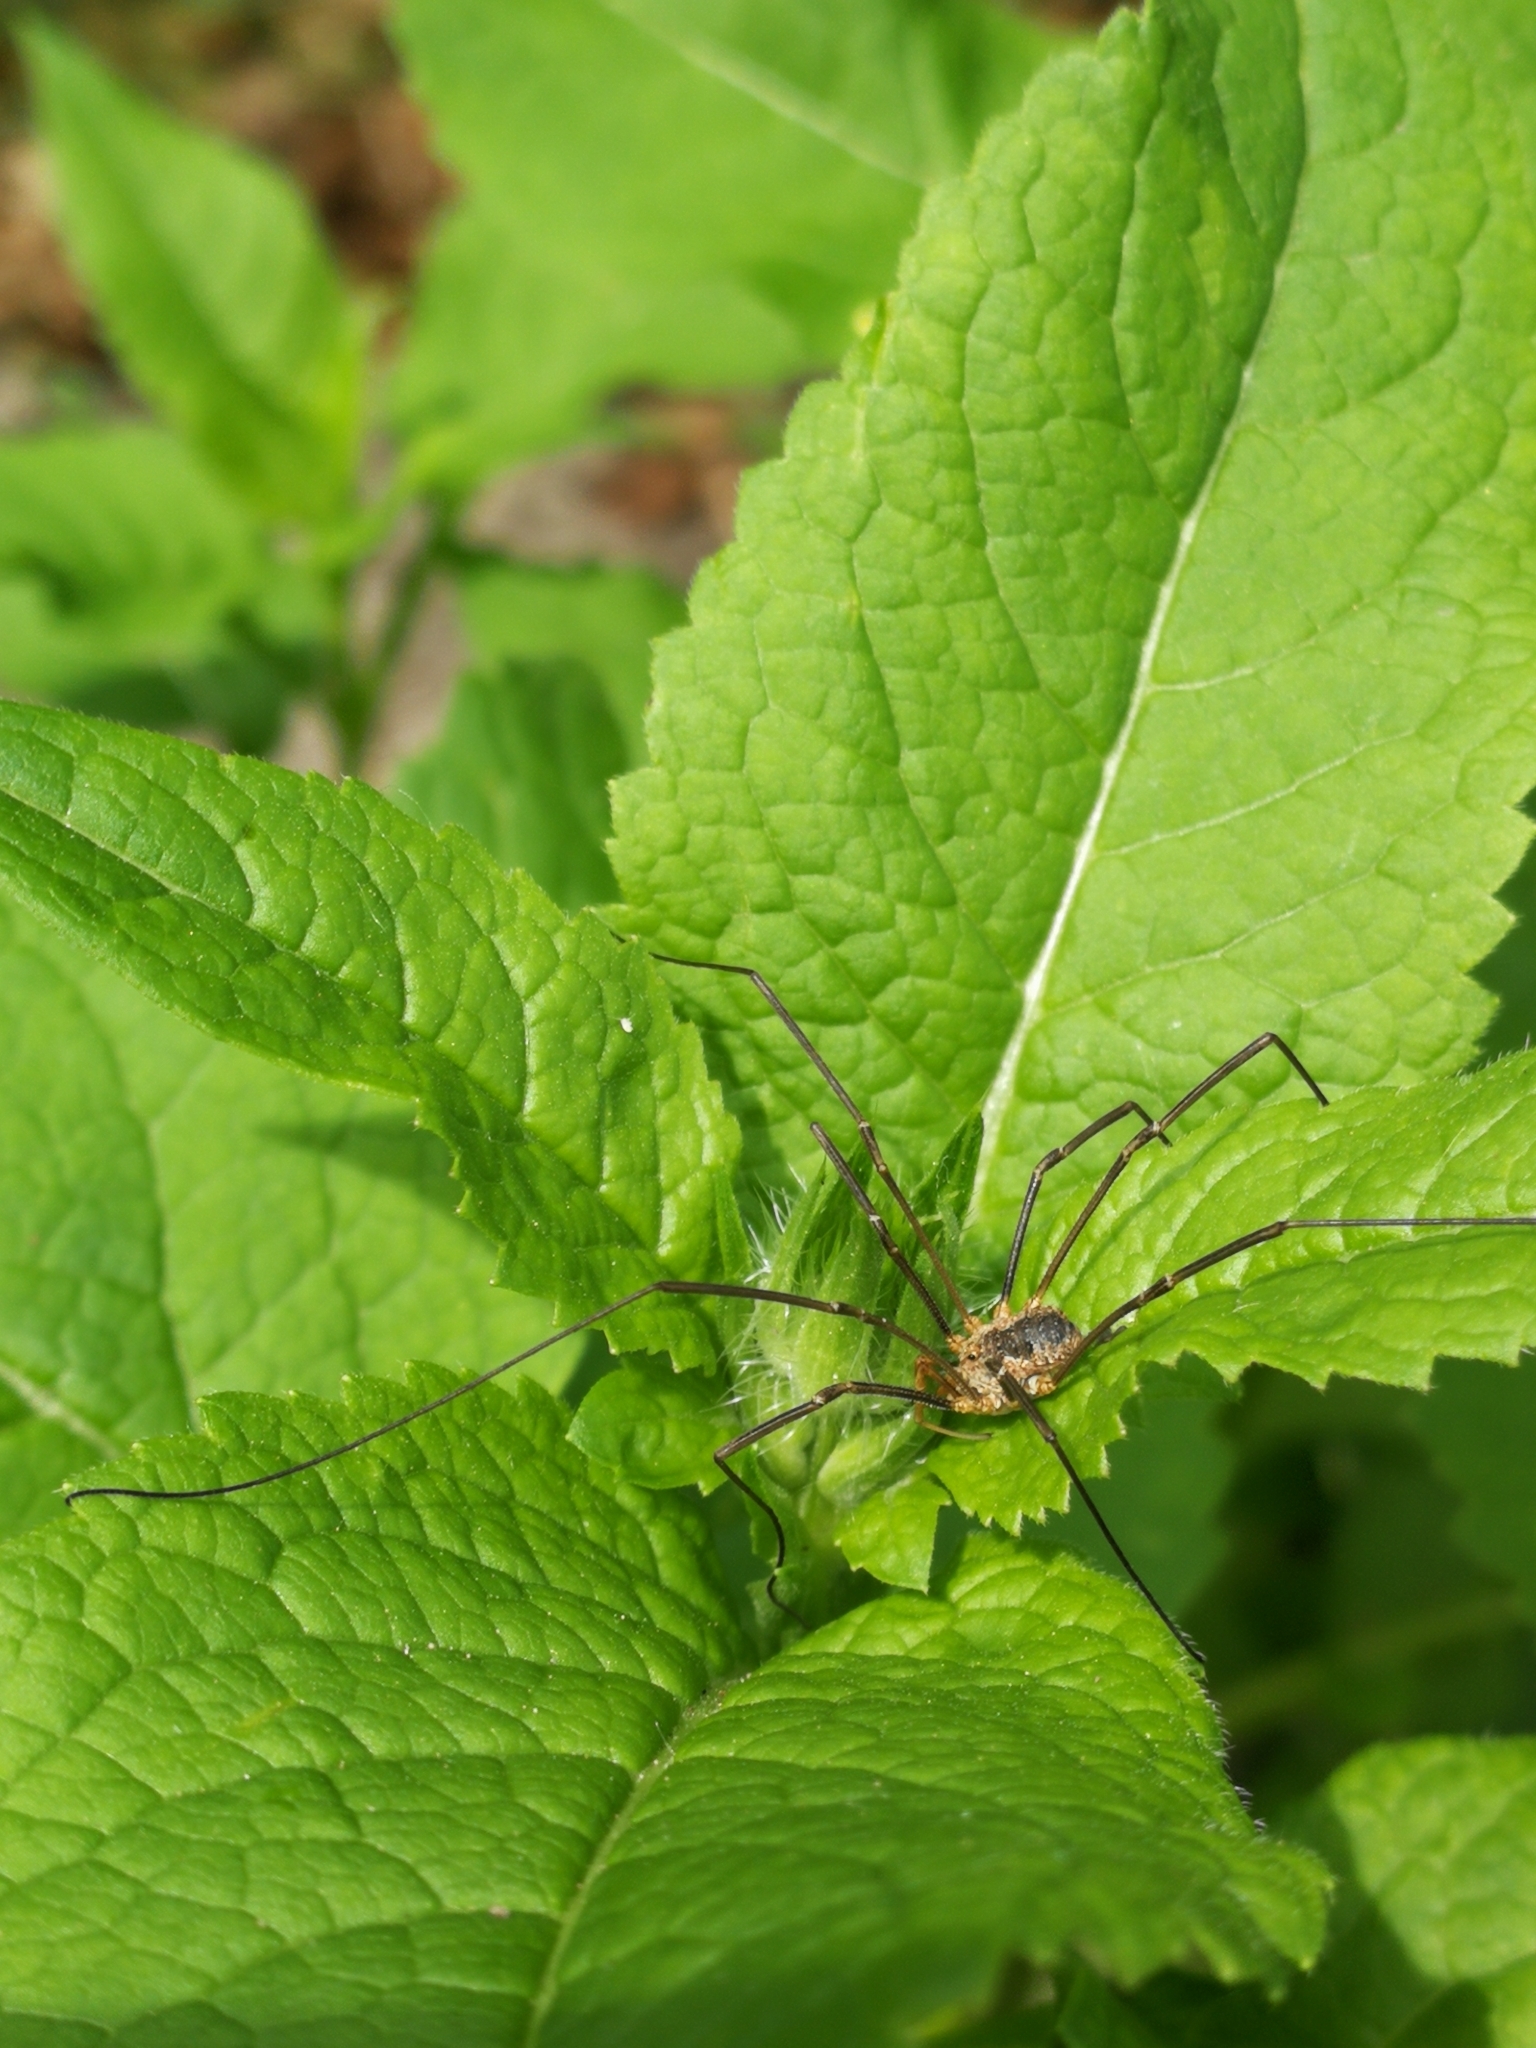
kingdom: Animalia
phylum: Arthropoda
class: Arachnida
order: Opiliones
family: Phalangiidae
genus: Phalangium
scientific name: Phalangium opilio
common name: Daddy longleg
